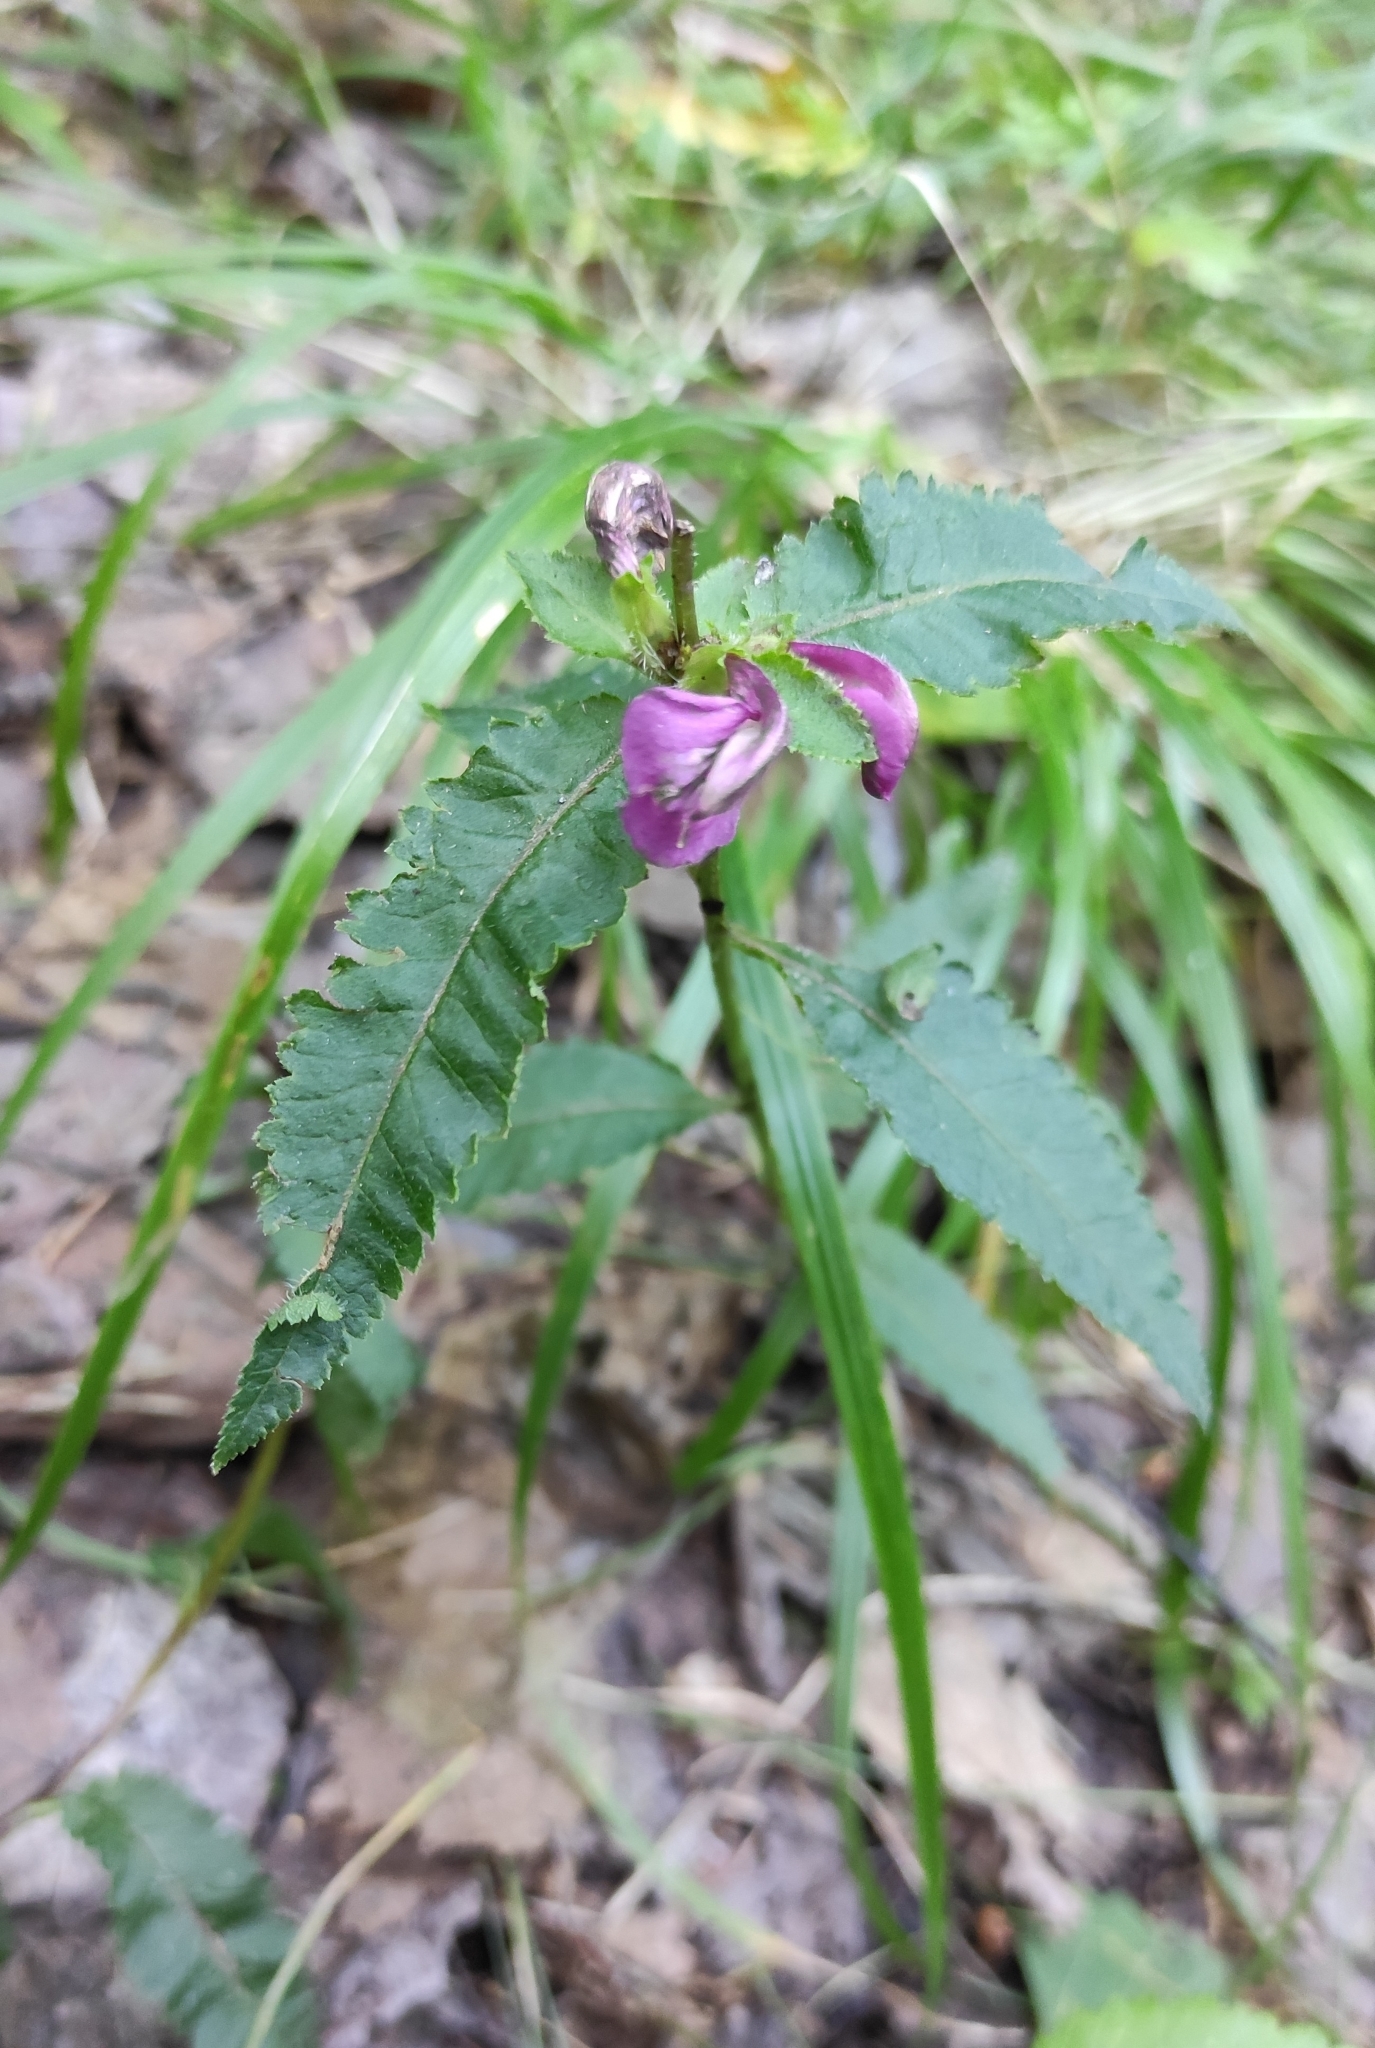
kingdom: Plantae
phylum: Tracheophyta
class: Magnoliopsida
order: Lamiales
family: Orobanchaceae
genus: Pedicularis
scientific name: Pedicularis resupinata
